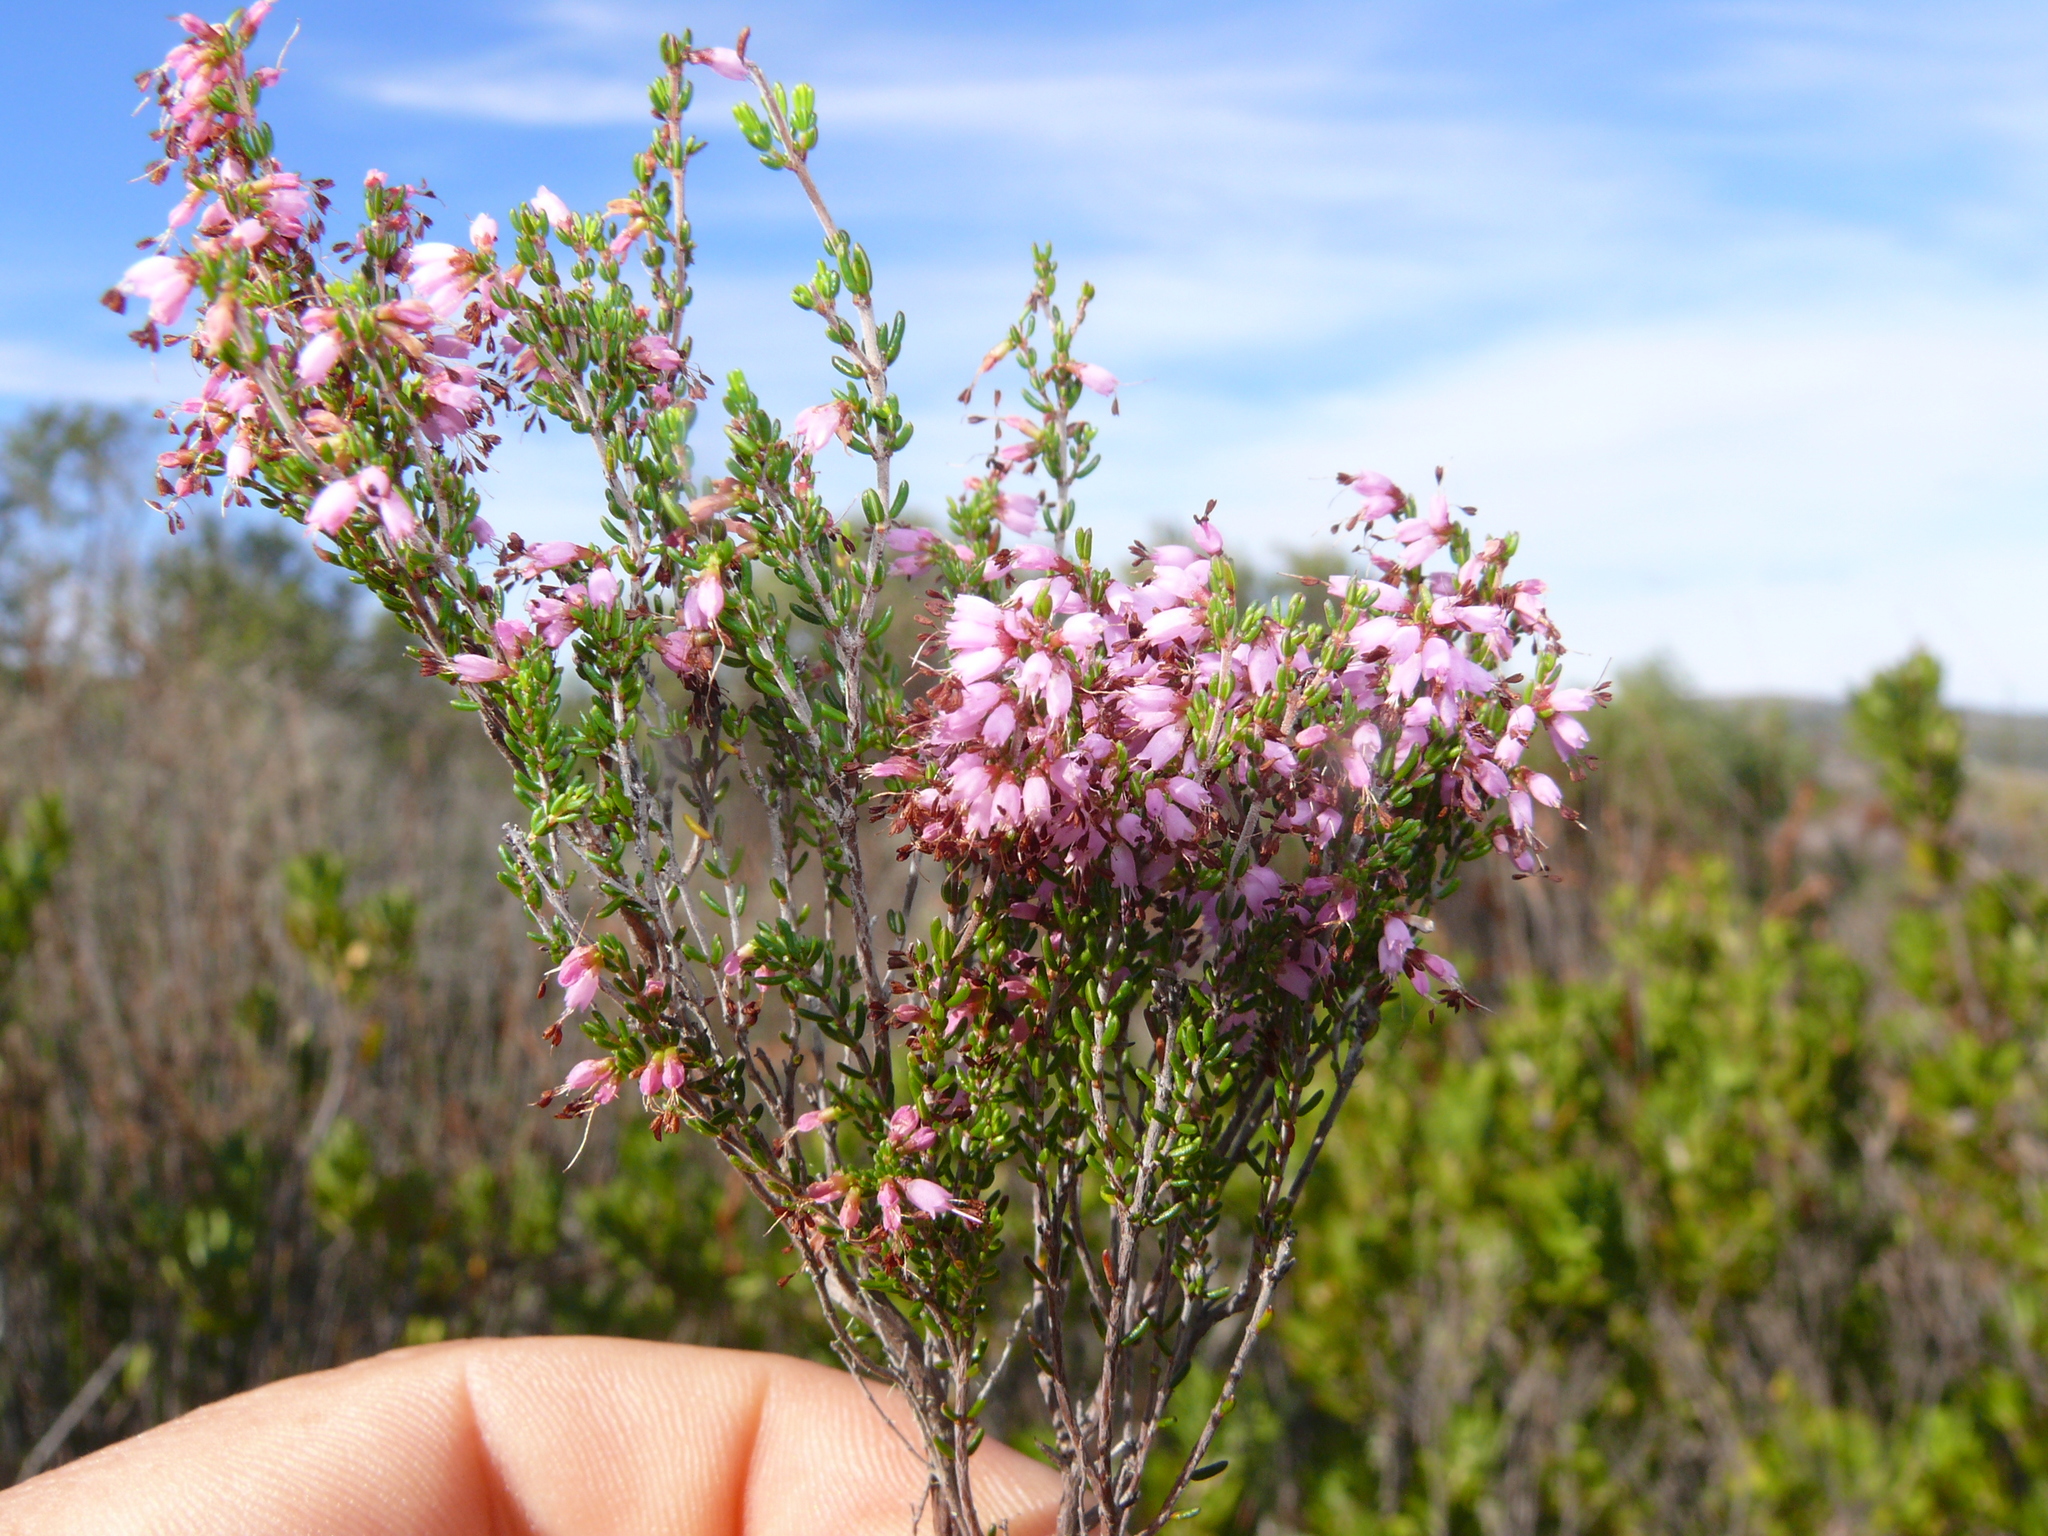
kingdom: Plantae
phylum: Tracheophyta
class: Magnoliopsida
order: Ericales
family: Ericaceae
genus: Erica
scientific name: Erica anguliger
